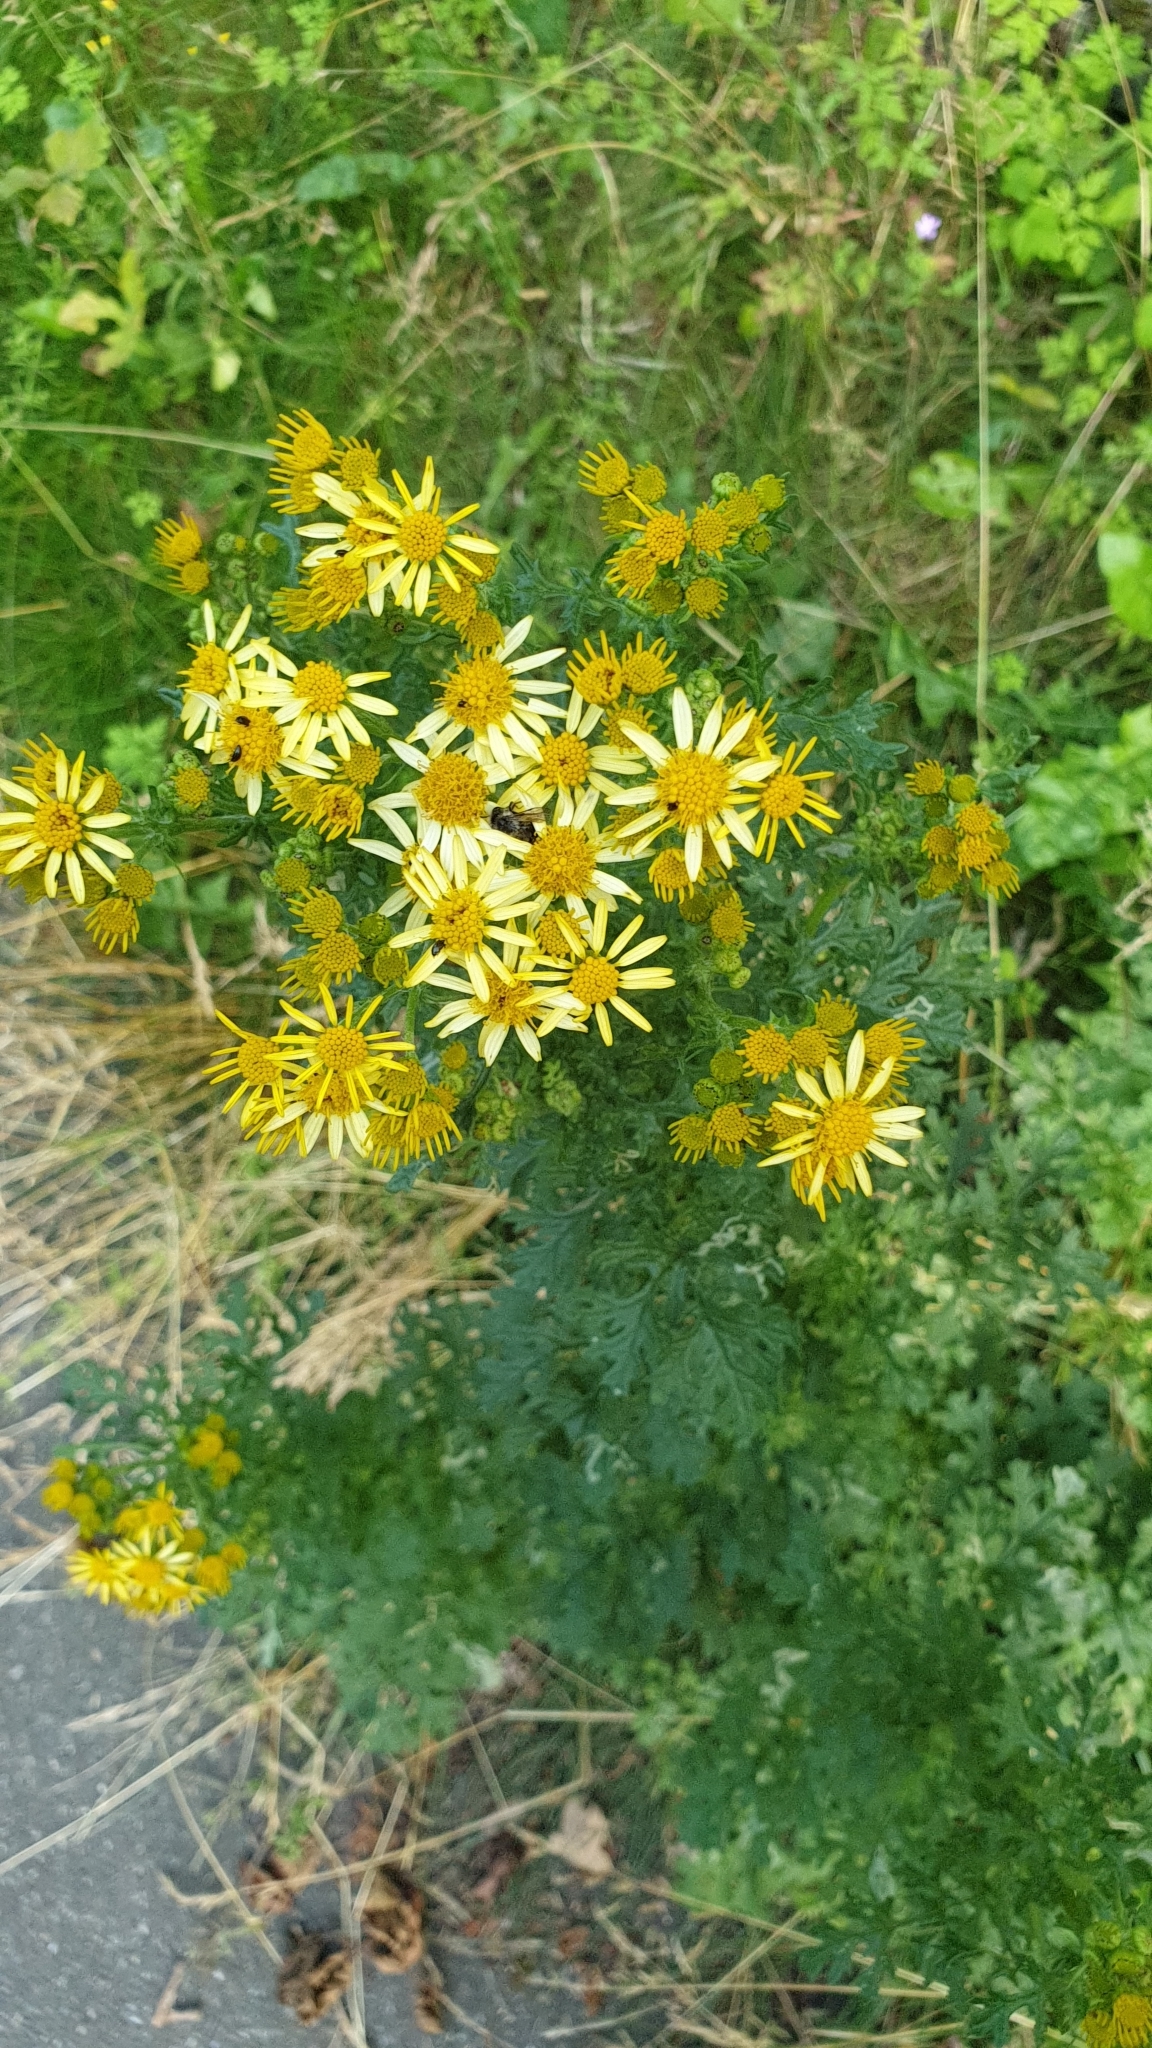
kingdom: Plantae
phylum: Tracheophyta
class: Magnoliopsida
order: Asterales
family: Asteraceae
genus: Jacobaea
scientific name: Jacobaea vulgaris
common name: Stinking willie
